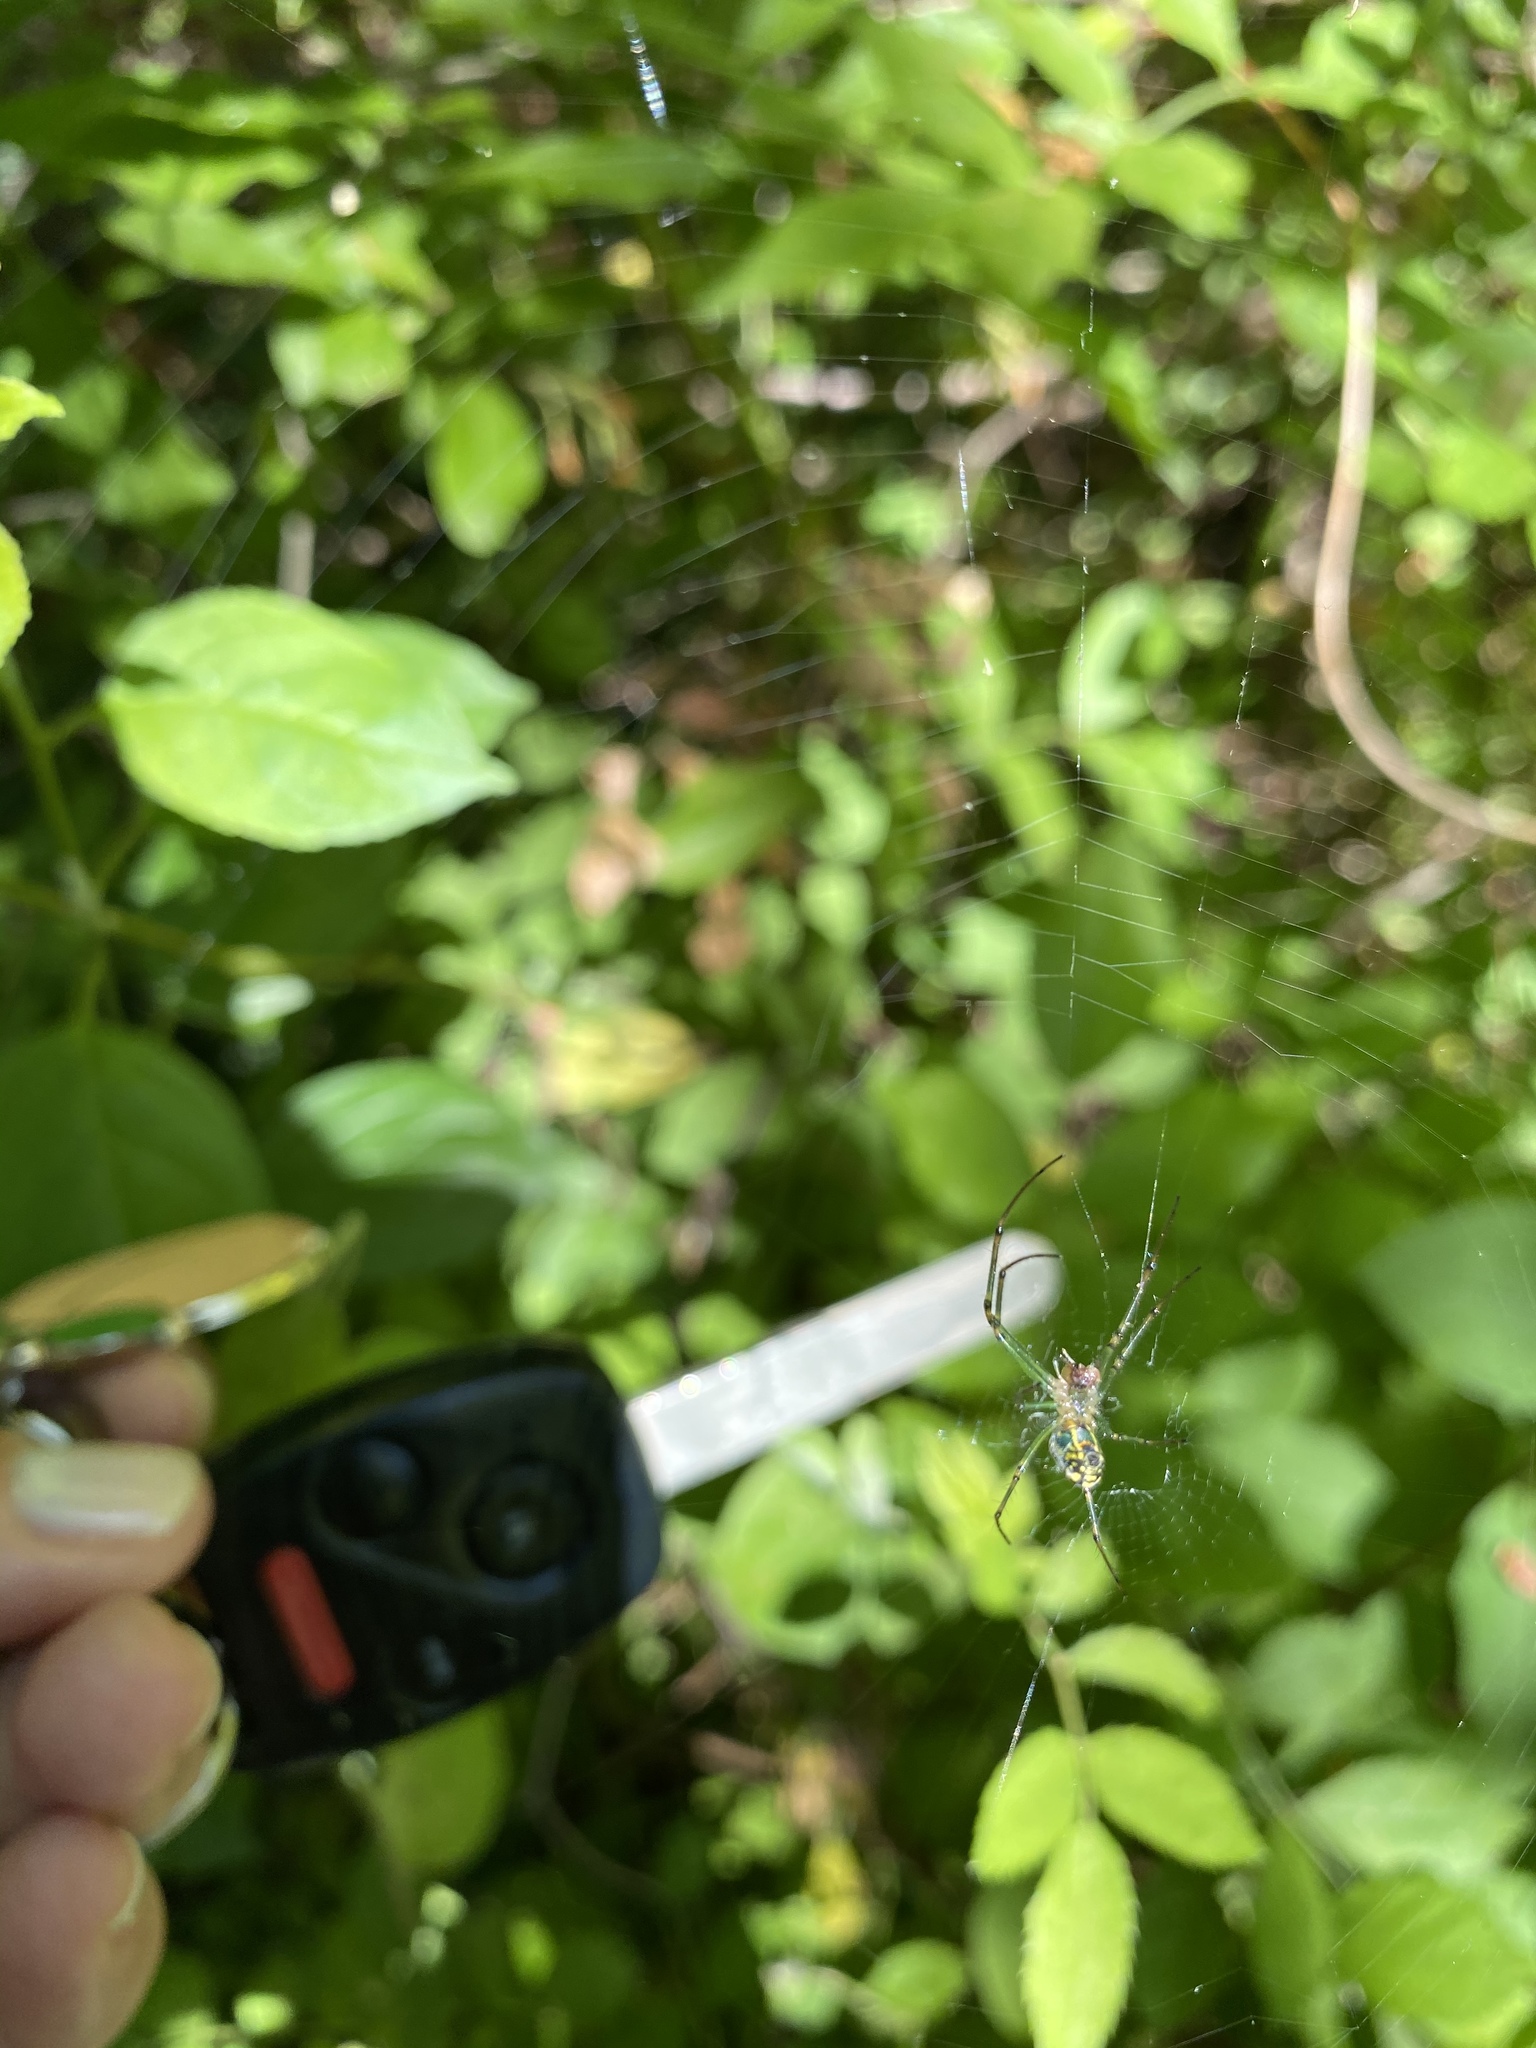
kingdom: Animalia
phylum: Arthropoda
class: Arachnida
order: Araneae
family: Tetragnathidae
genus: Leucauge
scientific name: Leucauge venusta
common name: Longjawed orb weavers
